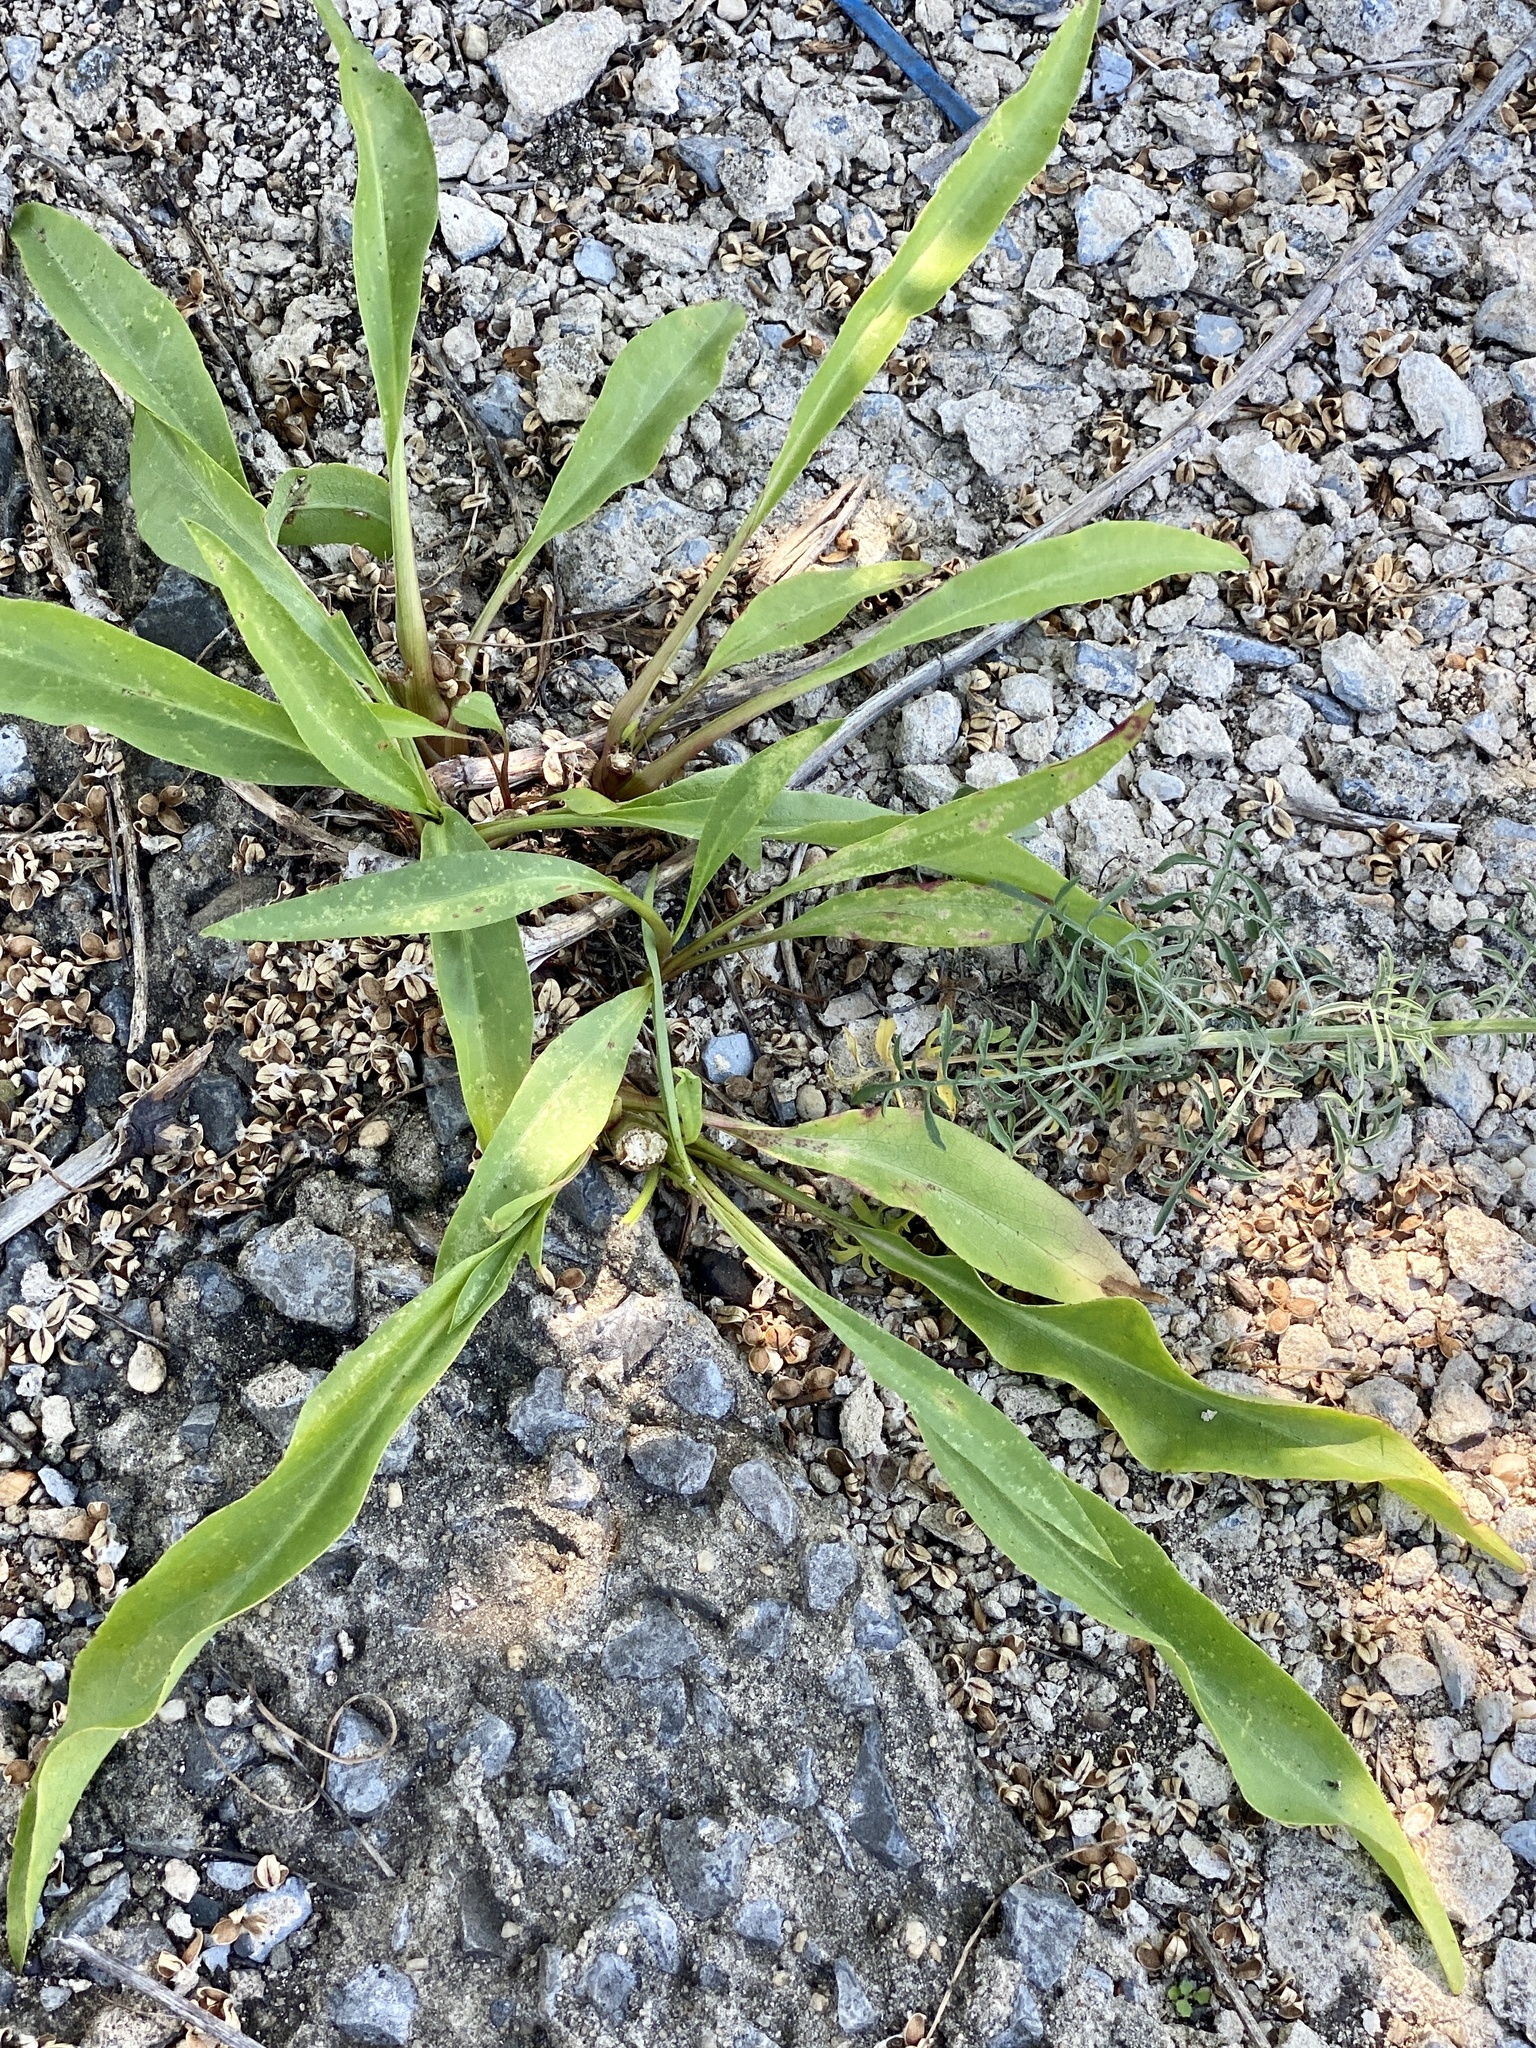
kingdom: Plantae
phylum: Tracheophyta
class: Magnoliopsida
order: Asterales
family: Asteraceae
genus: Solidago
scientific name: Solidago sempervirens
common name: Salt-marsh goldenrod
